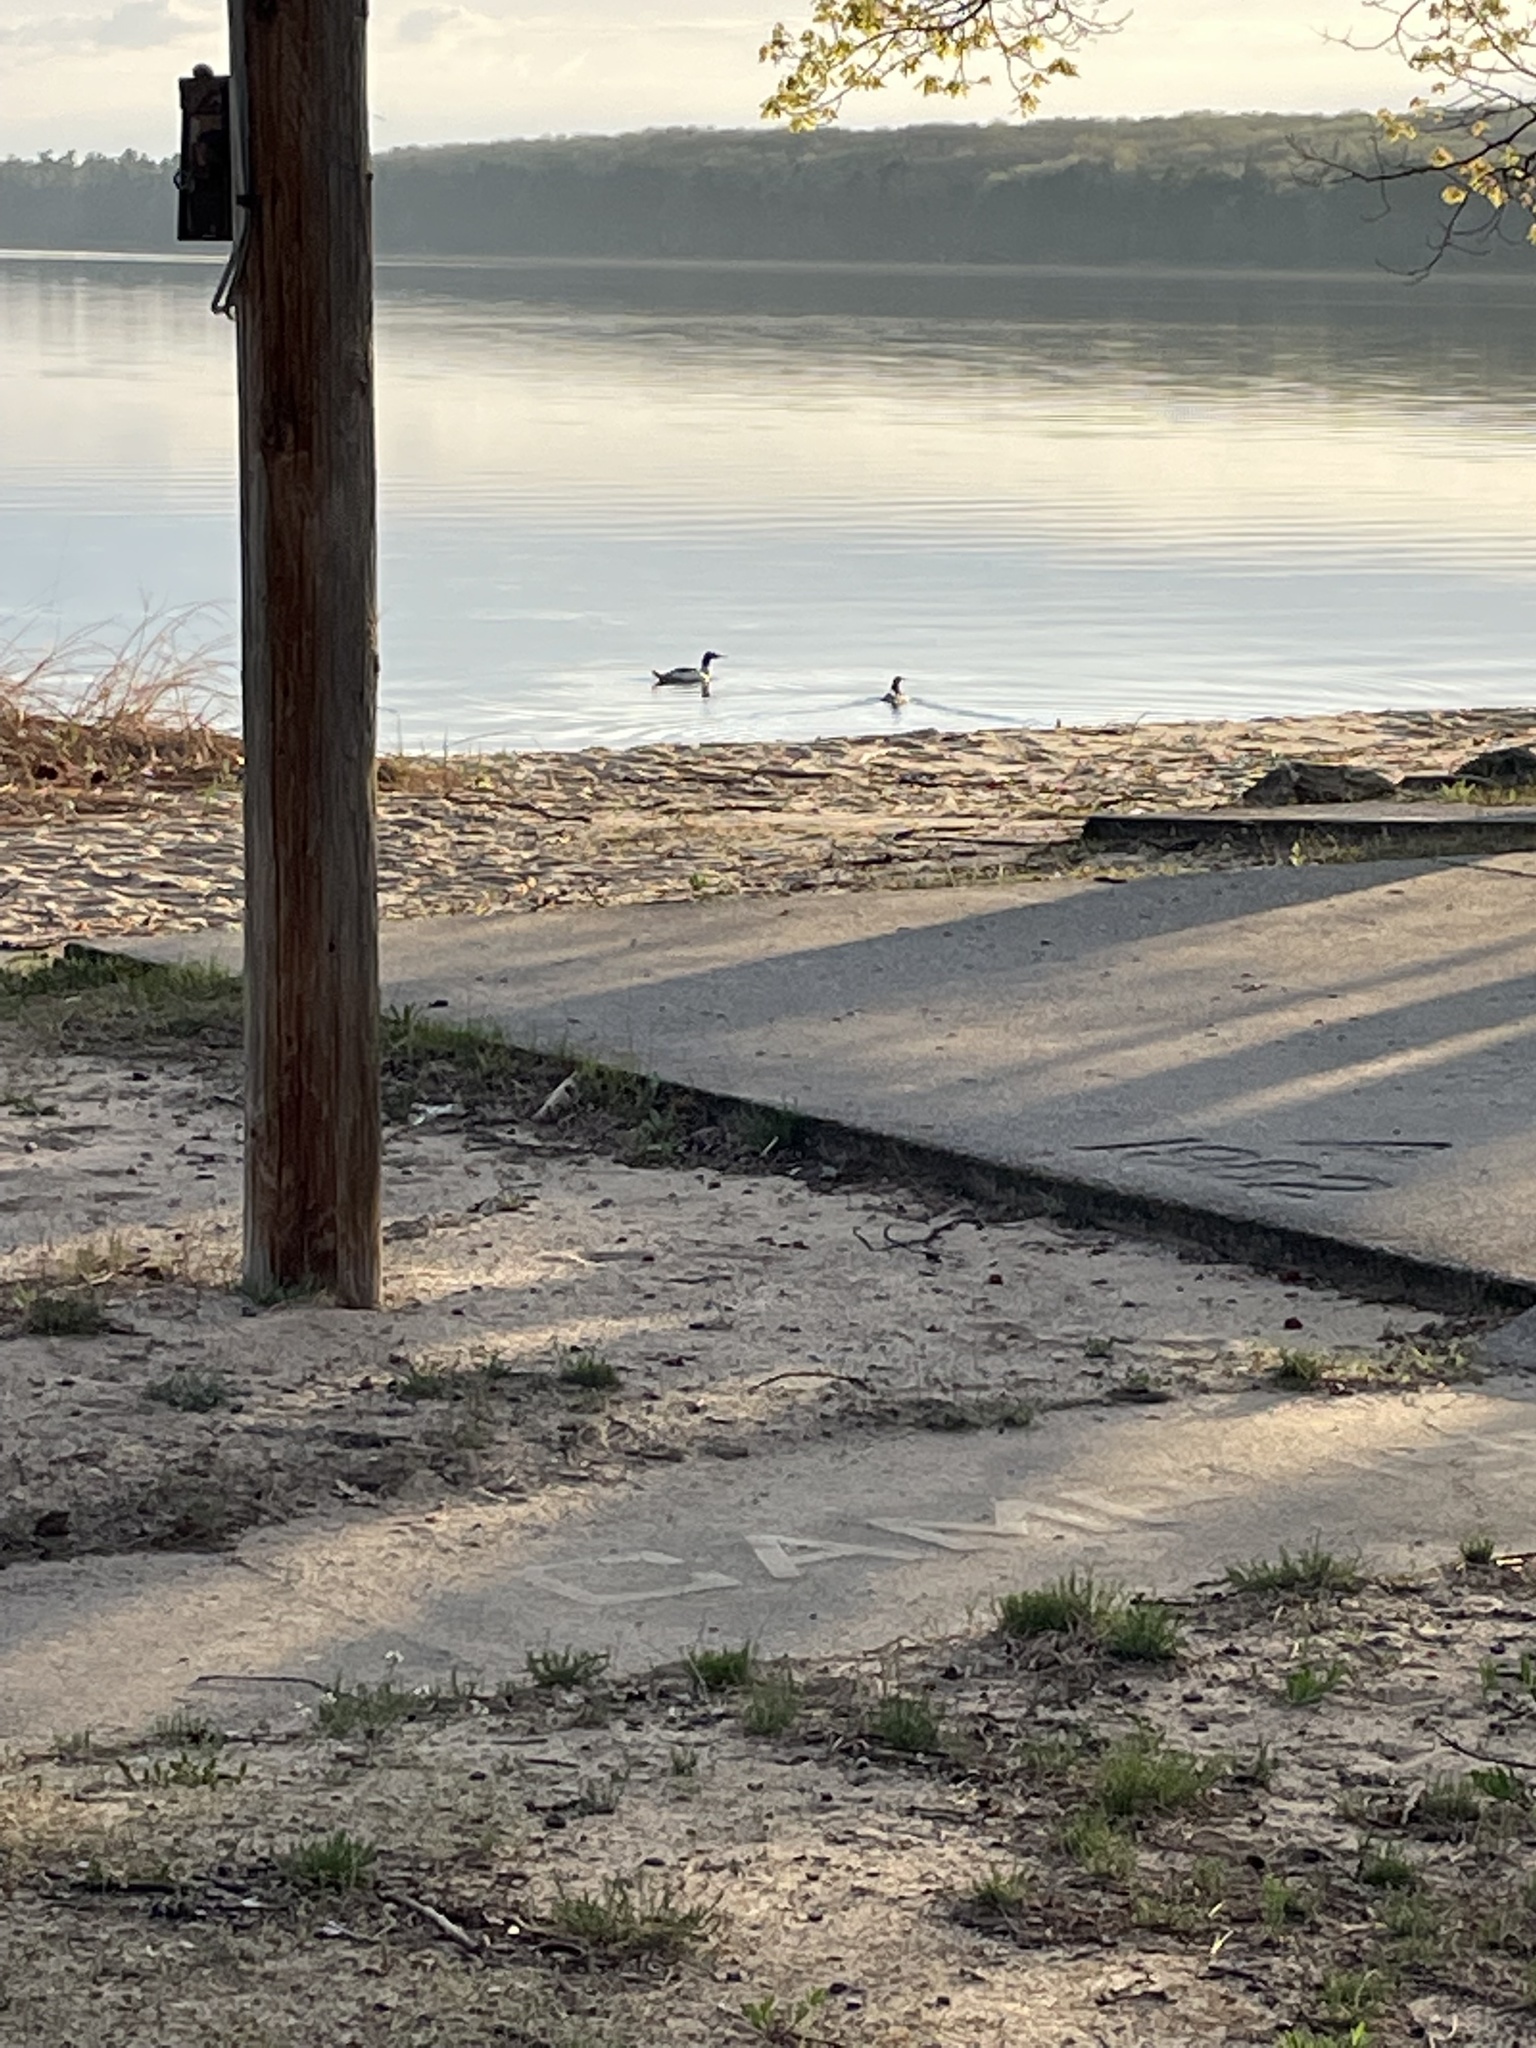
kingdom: Animalia
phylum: Chordata
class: Aves
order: Anseriformes
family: Anatidae
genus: Mergus
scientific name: Mergus serrator
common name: Red-breasted merganser
